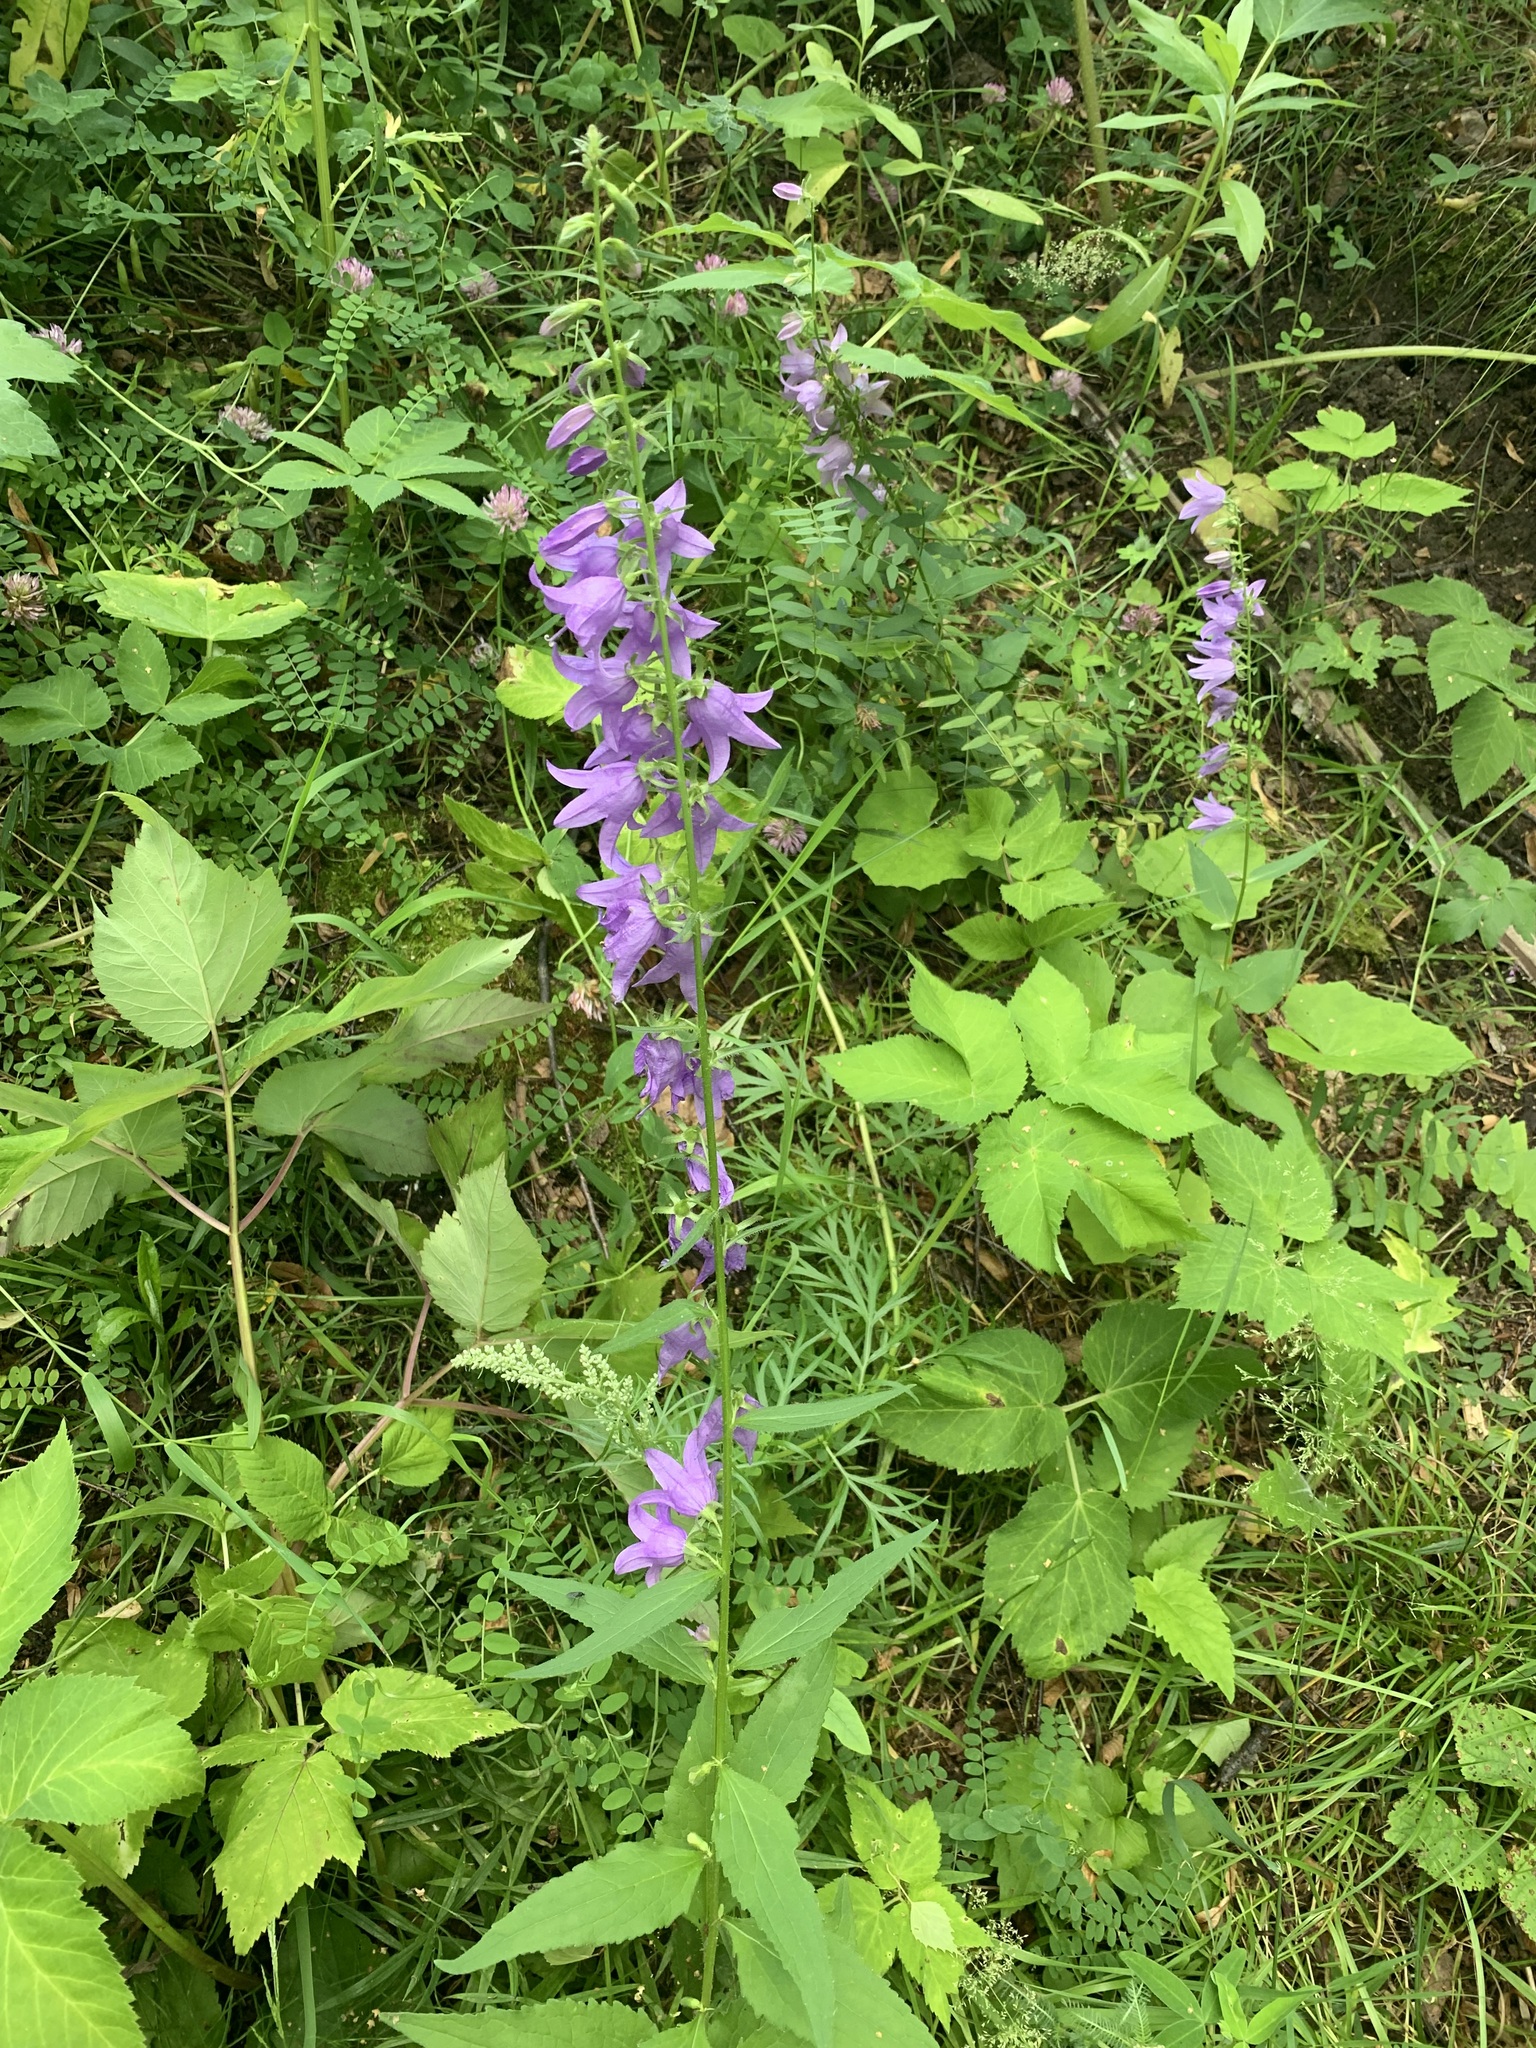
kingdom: Plantae
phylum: Tracheophyta
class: Magnoliopsida
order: Asterales
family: Campanulaceae
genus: Campanula
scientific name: Campanula rapunculoides
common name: Creeping bellflower
